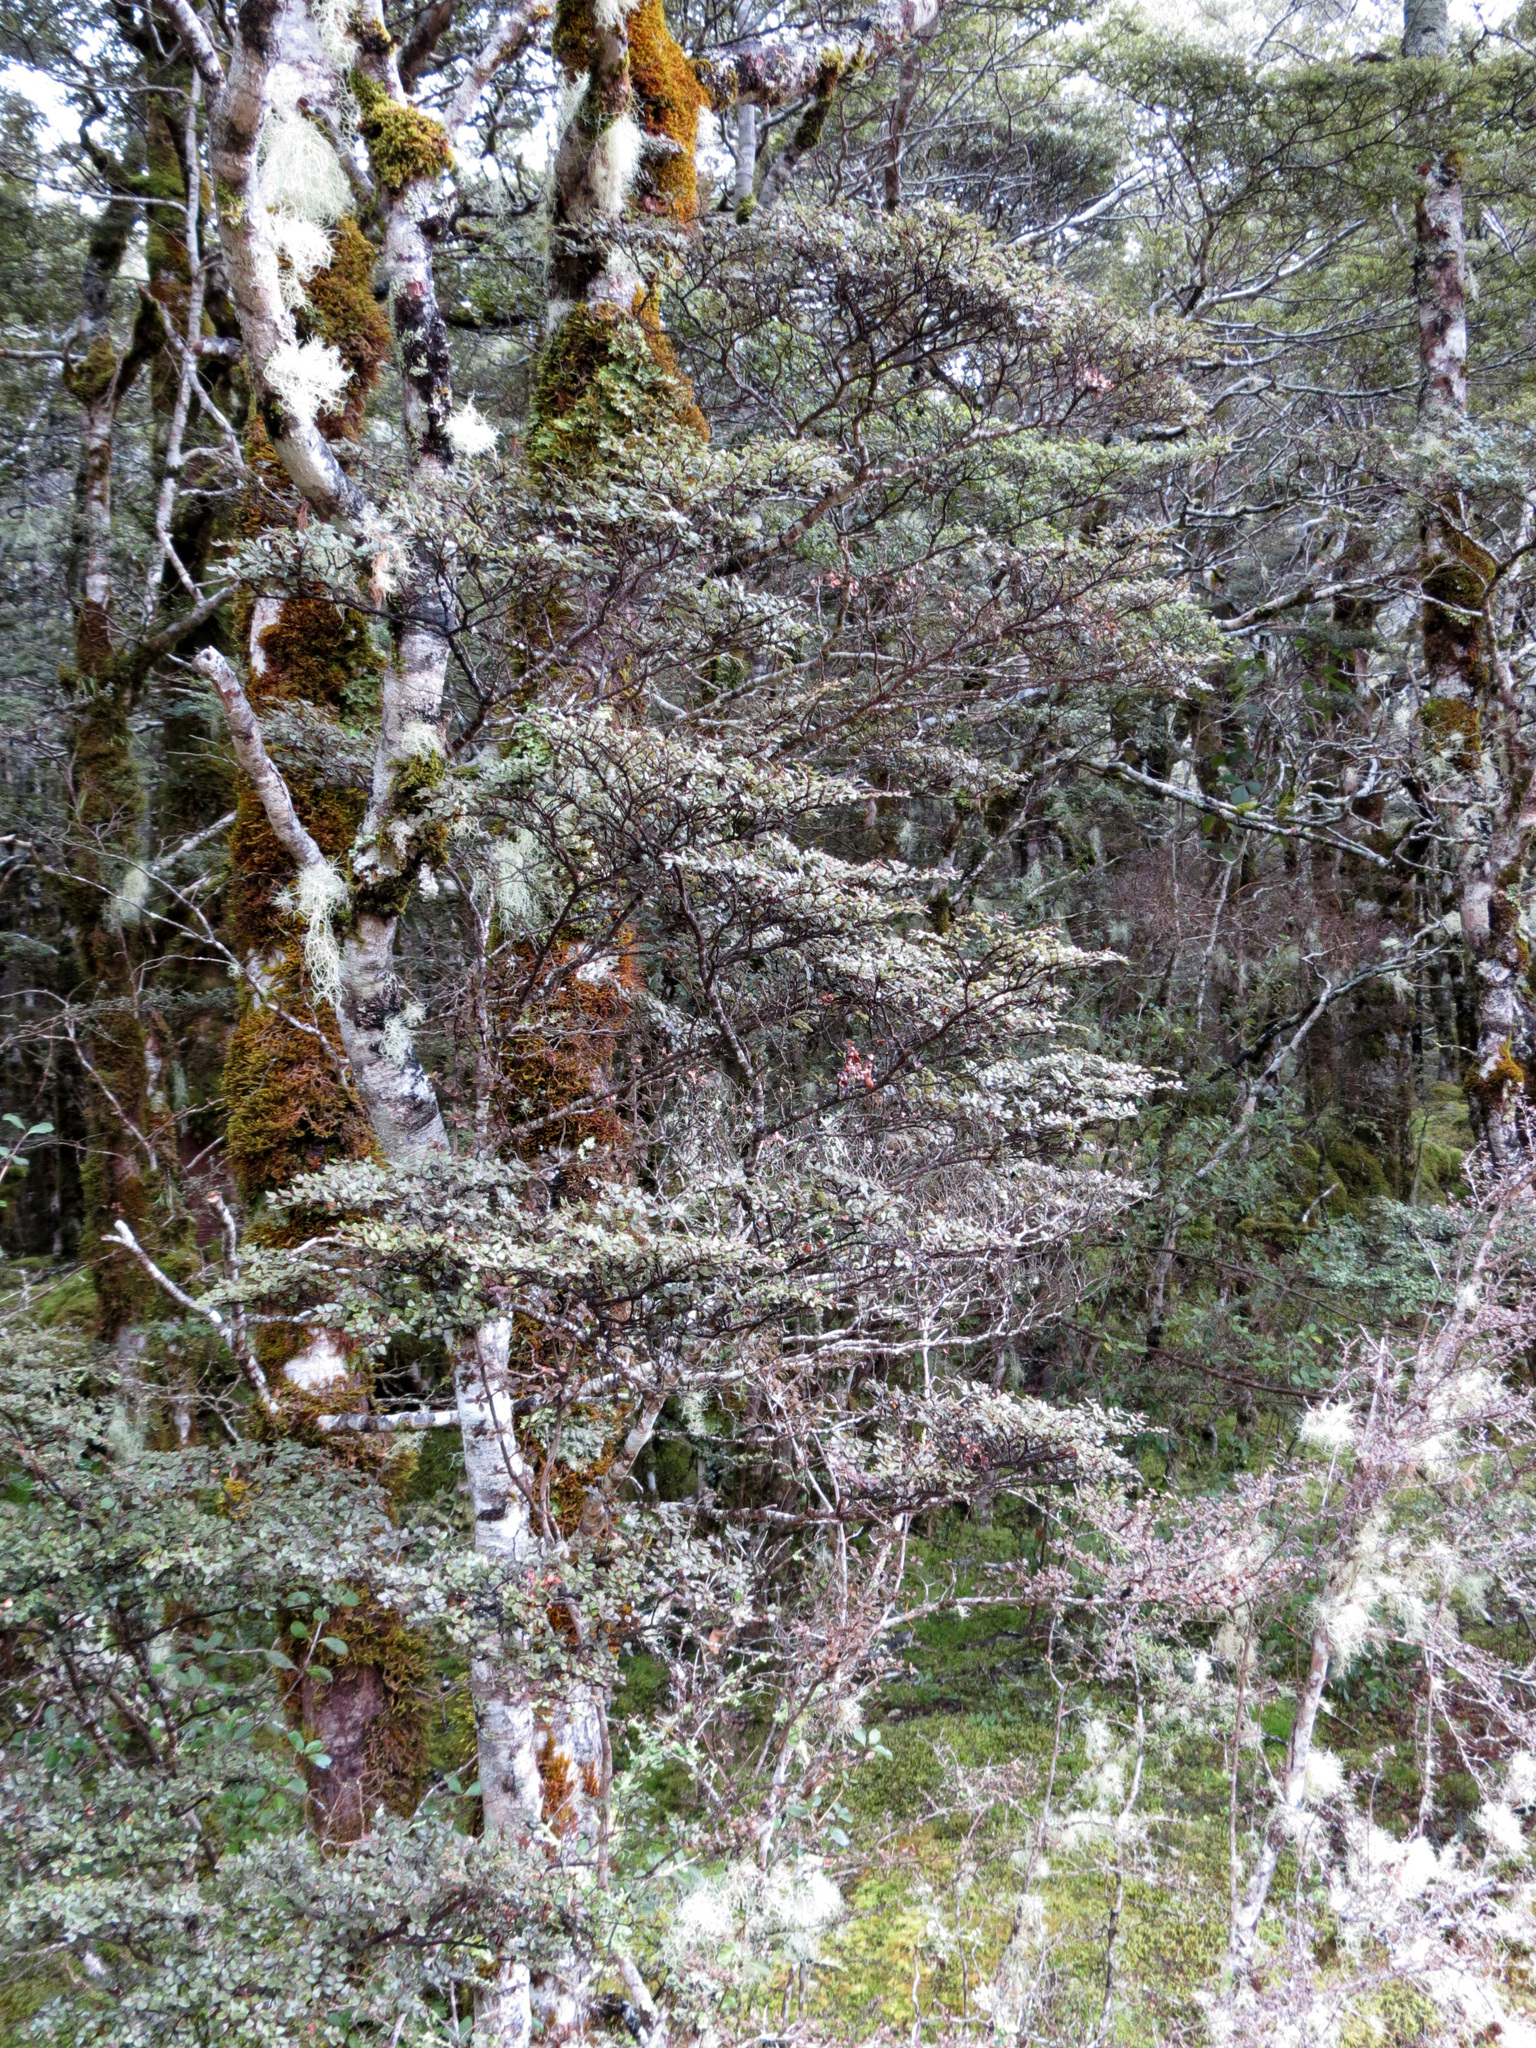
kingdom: Plantae
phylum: Tracheophyta
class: Magnoliopsida
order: Fagales
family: Nothofagaceae
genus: Nothofagus
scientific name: Nothofagus cliffortioides
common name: Mountain beech
